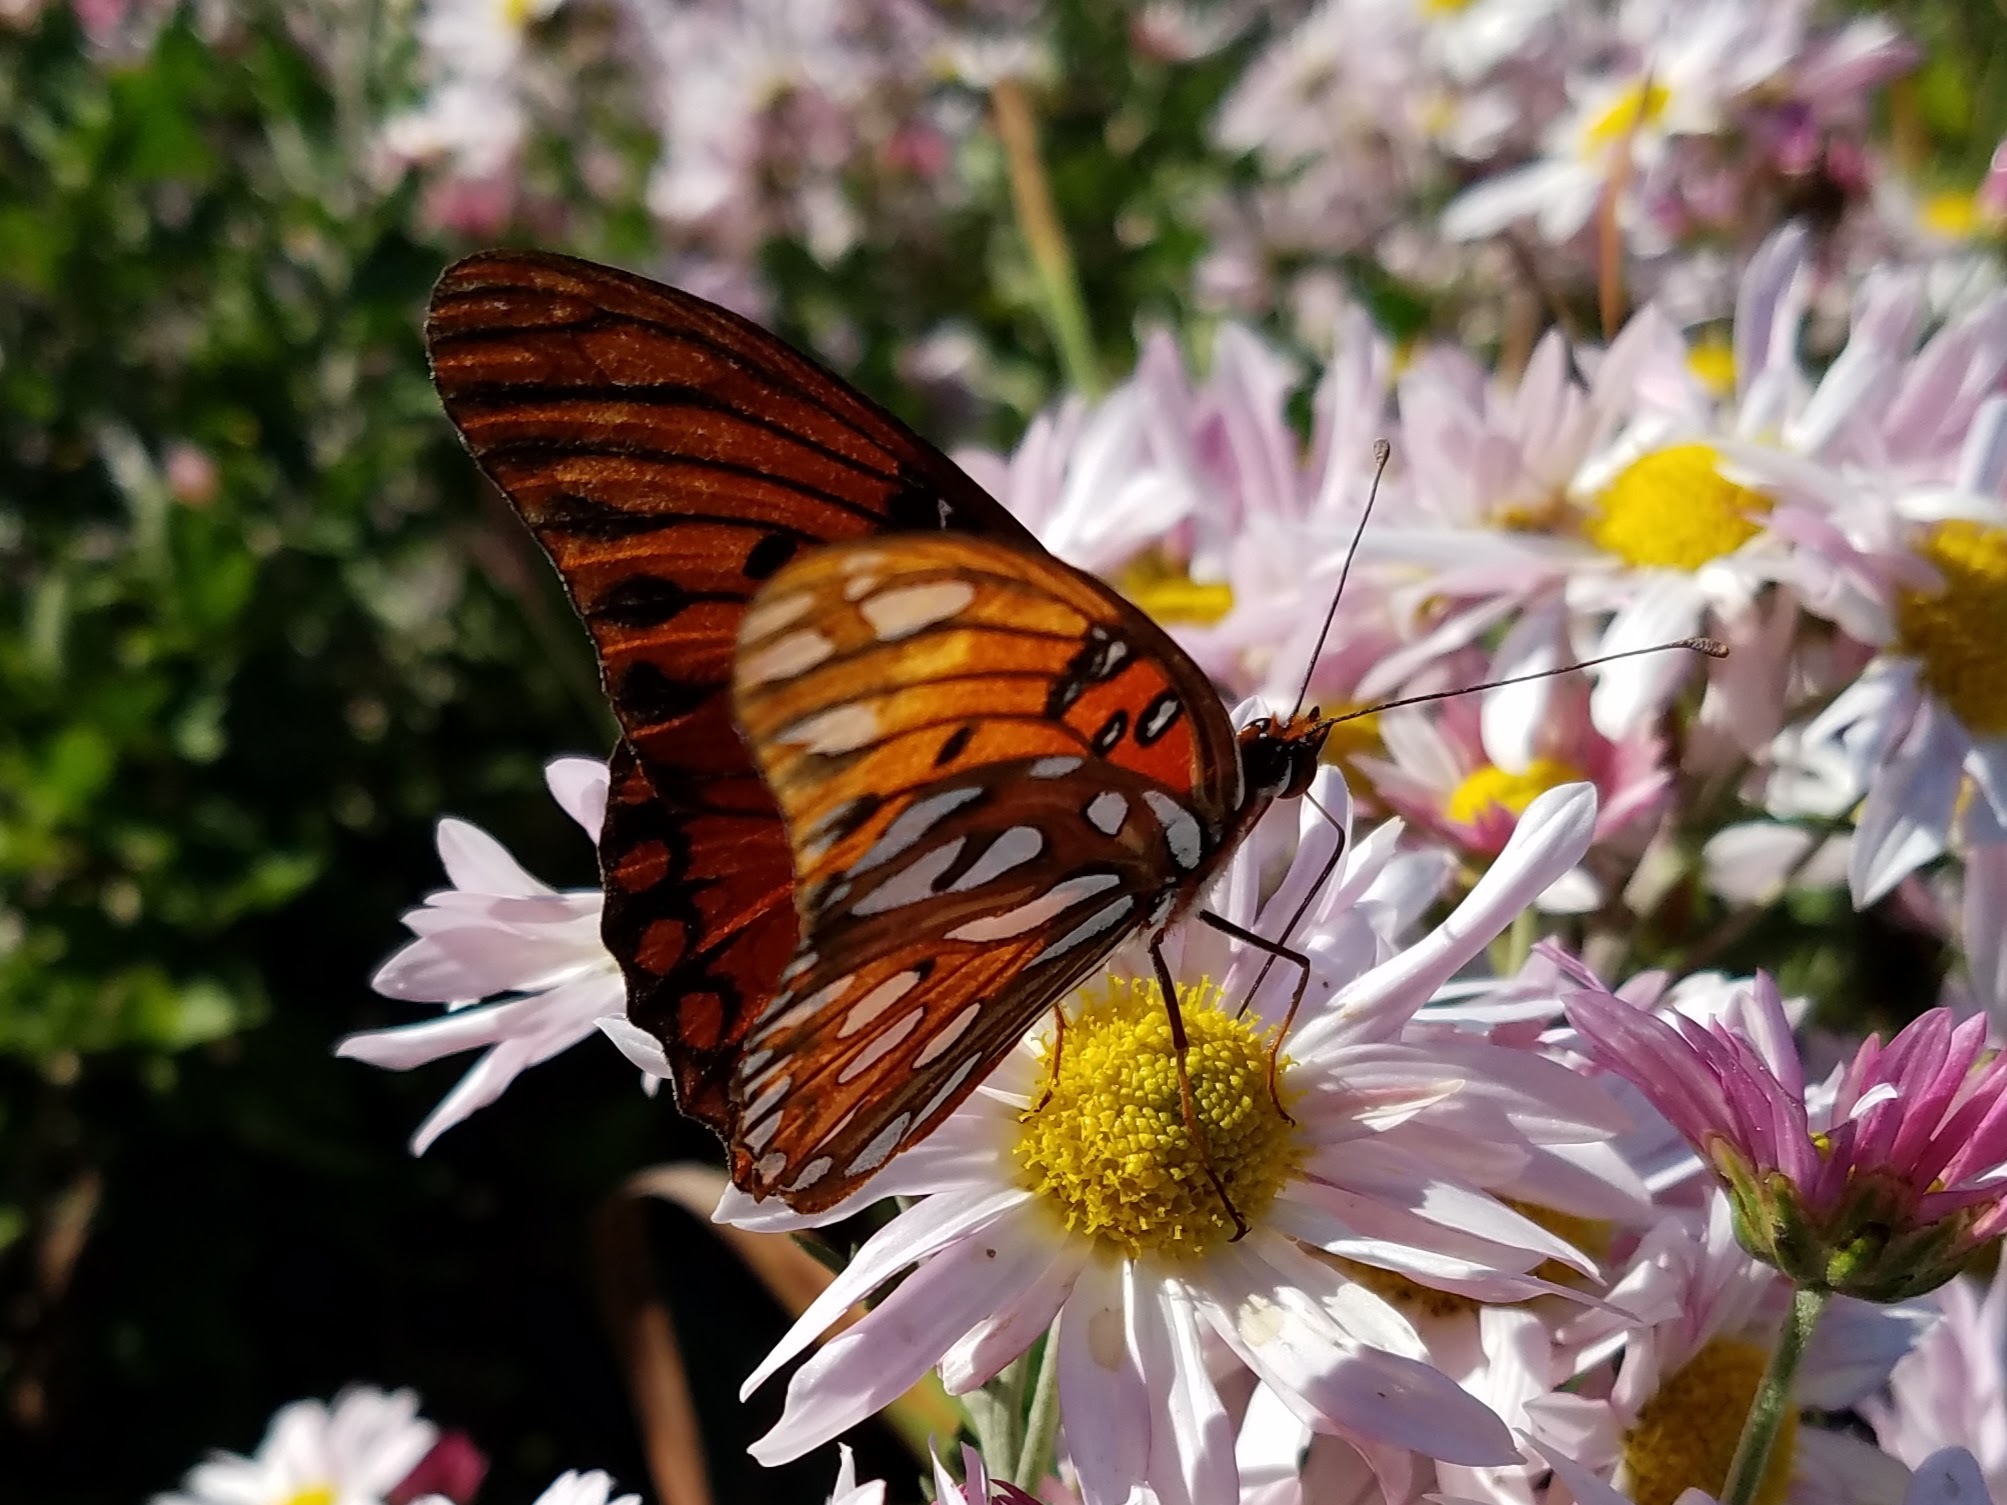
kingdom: Animalia
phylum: Arthropoda
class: Insecta
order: Lepidoptera
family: Nymphalidae
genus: Dione
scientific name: Dione vanillae
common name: Gulf fritillary
